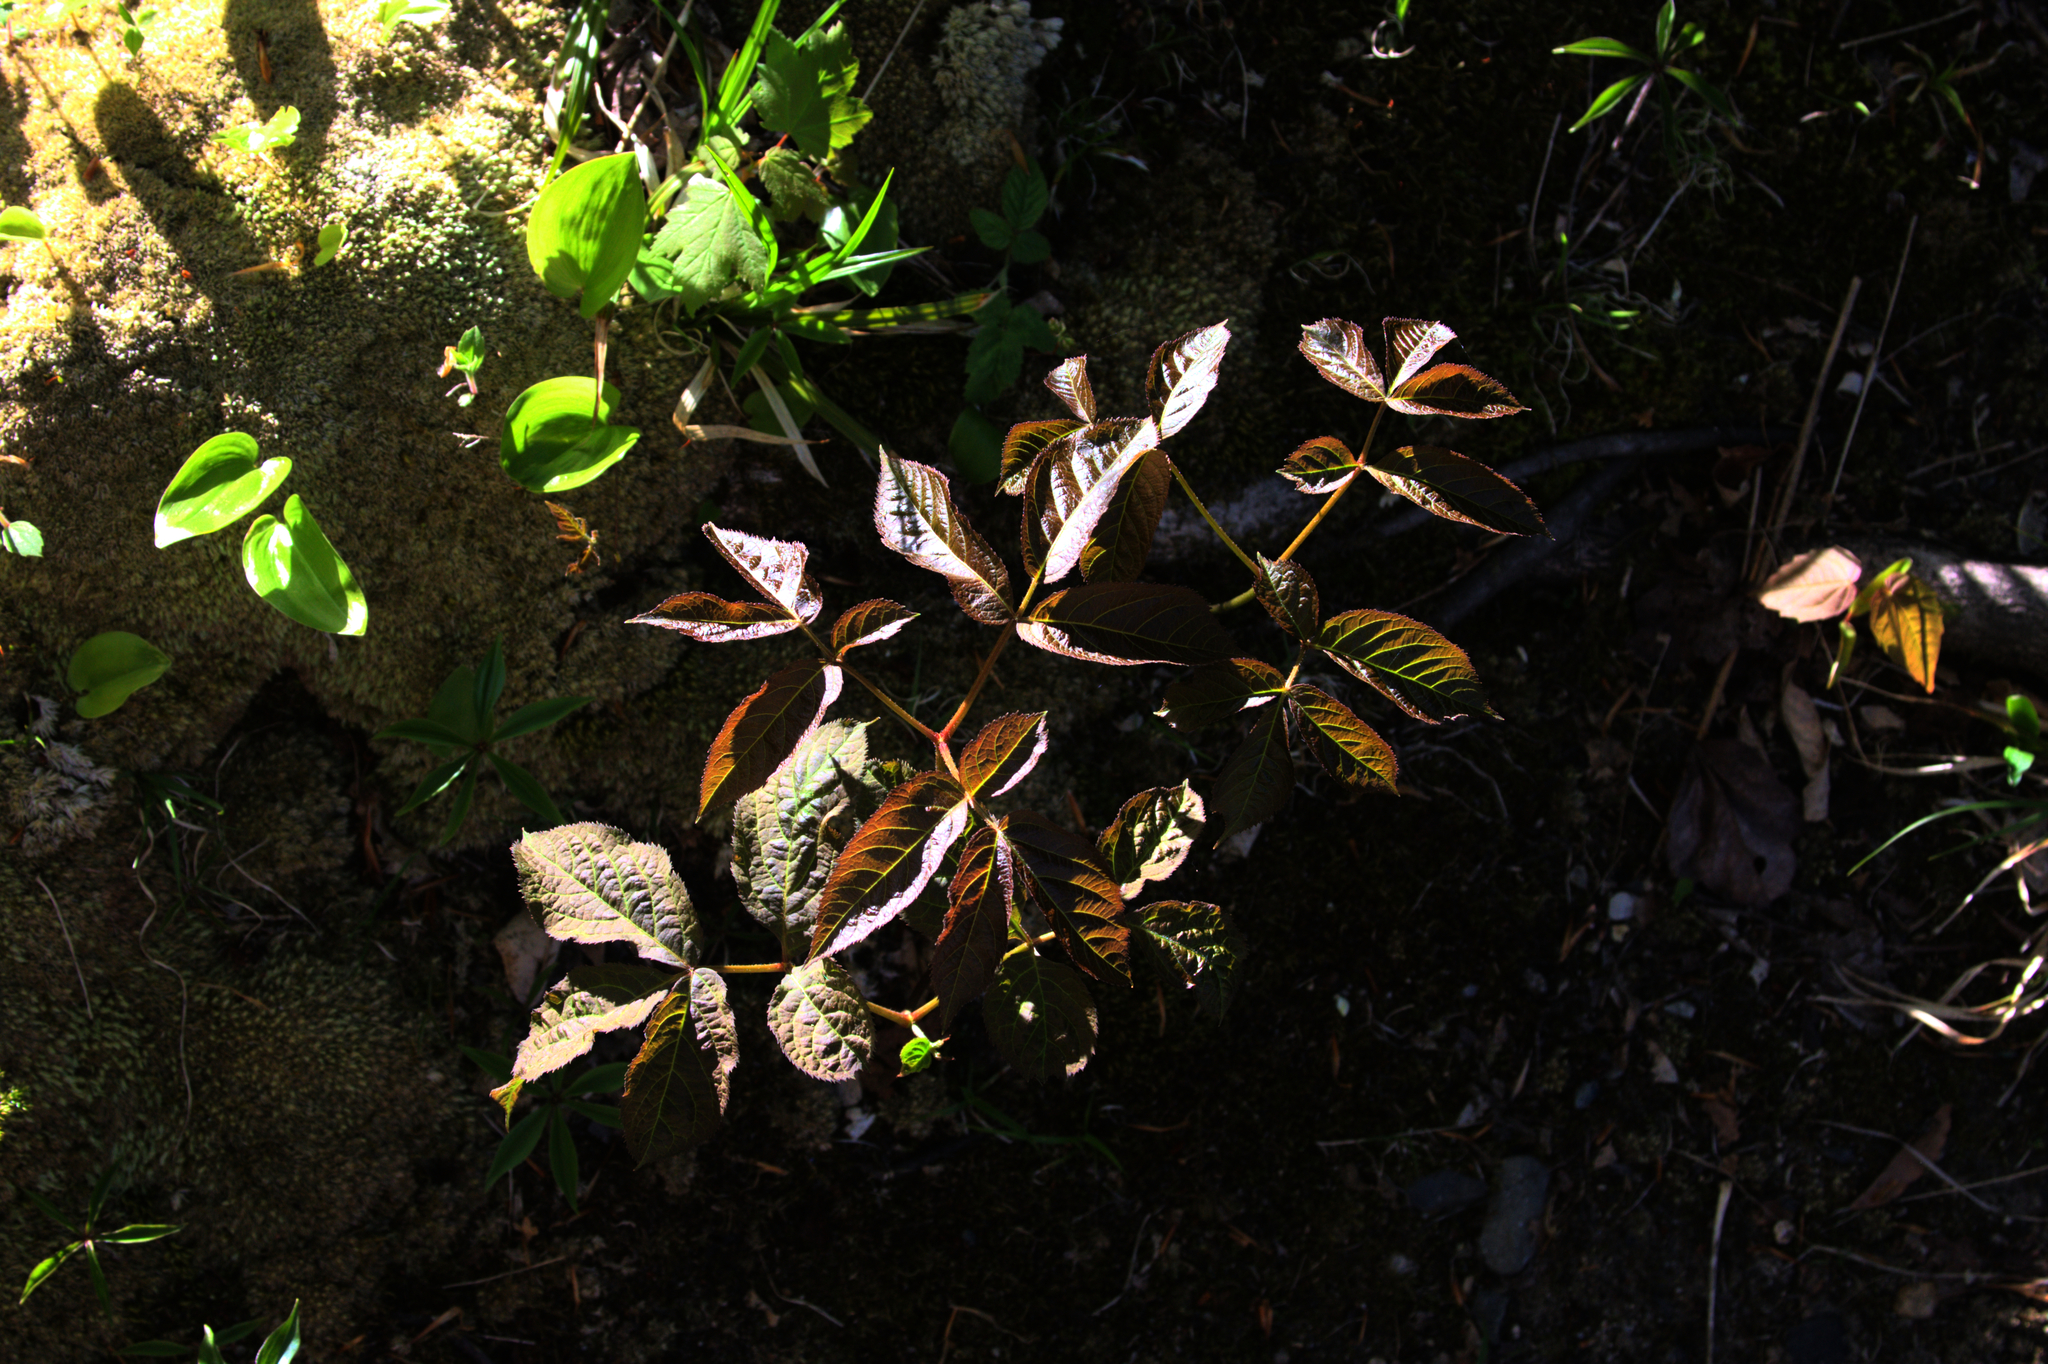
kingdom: Plantae
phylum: Tracheophyta
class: Magnoliopsida
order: Apiales
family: Araliaceae
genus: Aralia
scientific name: Aralia nudicaulis
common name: Wild sarsaparilla
